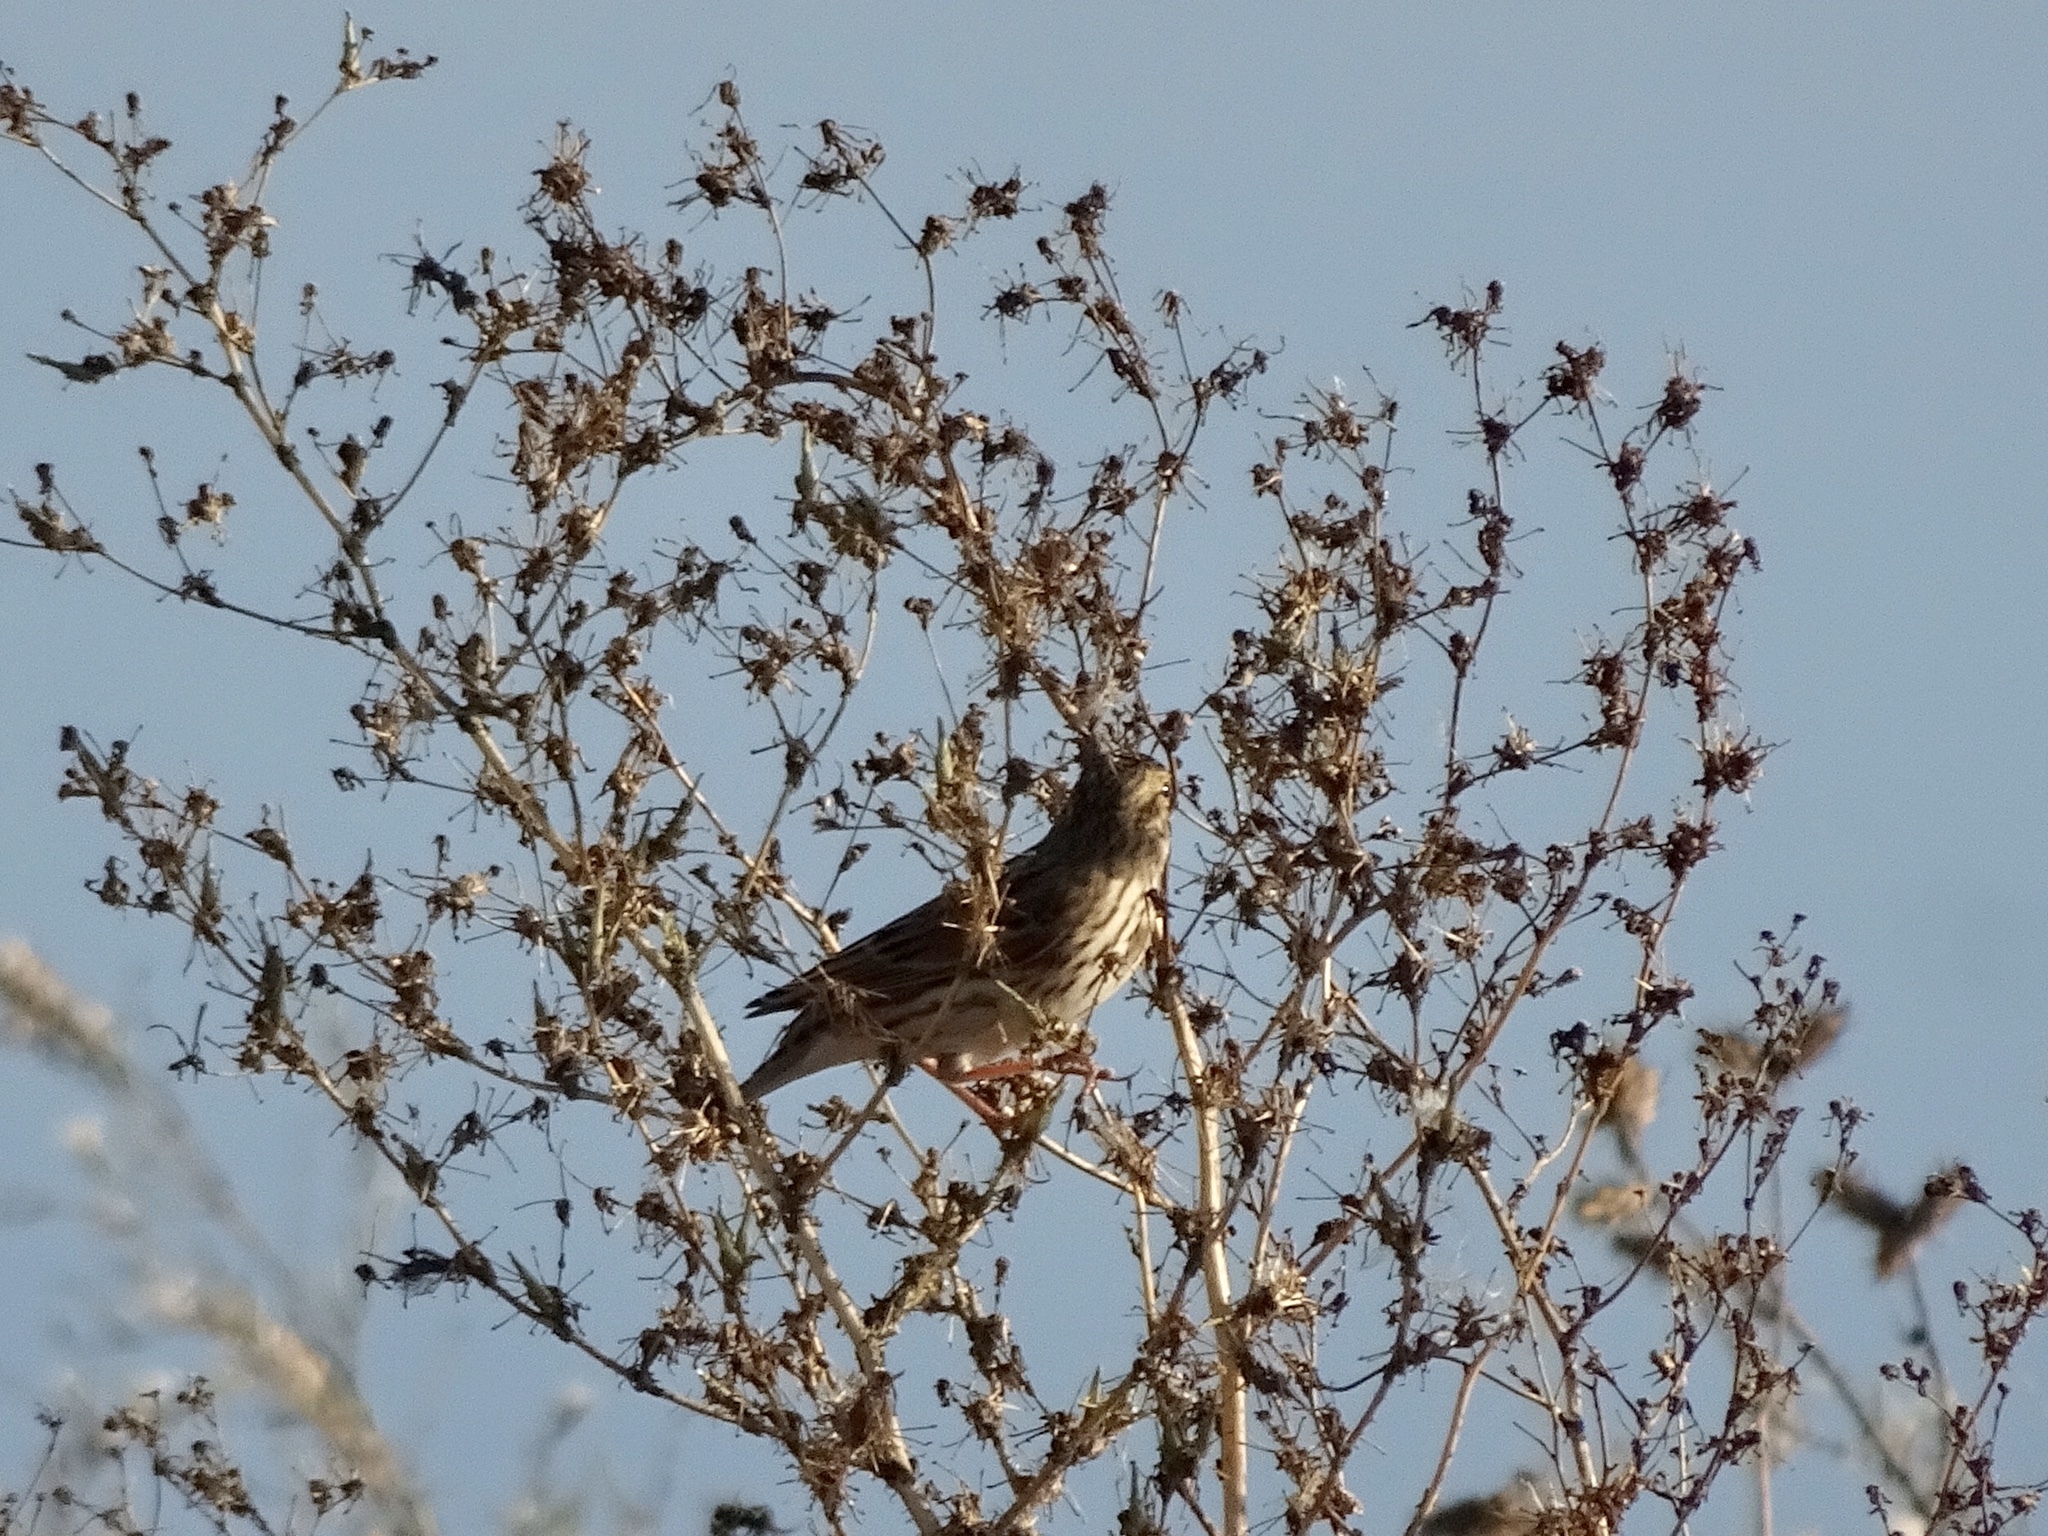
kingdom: Animalia
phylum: Chordata
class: Aves
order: Passeriformes
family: Passerellidae
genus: Passerculus
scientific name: Passerculus sandwichensis
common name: Savannah sparrow
